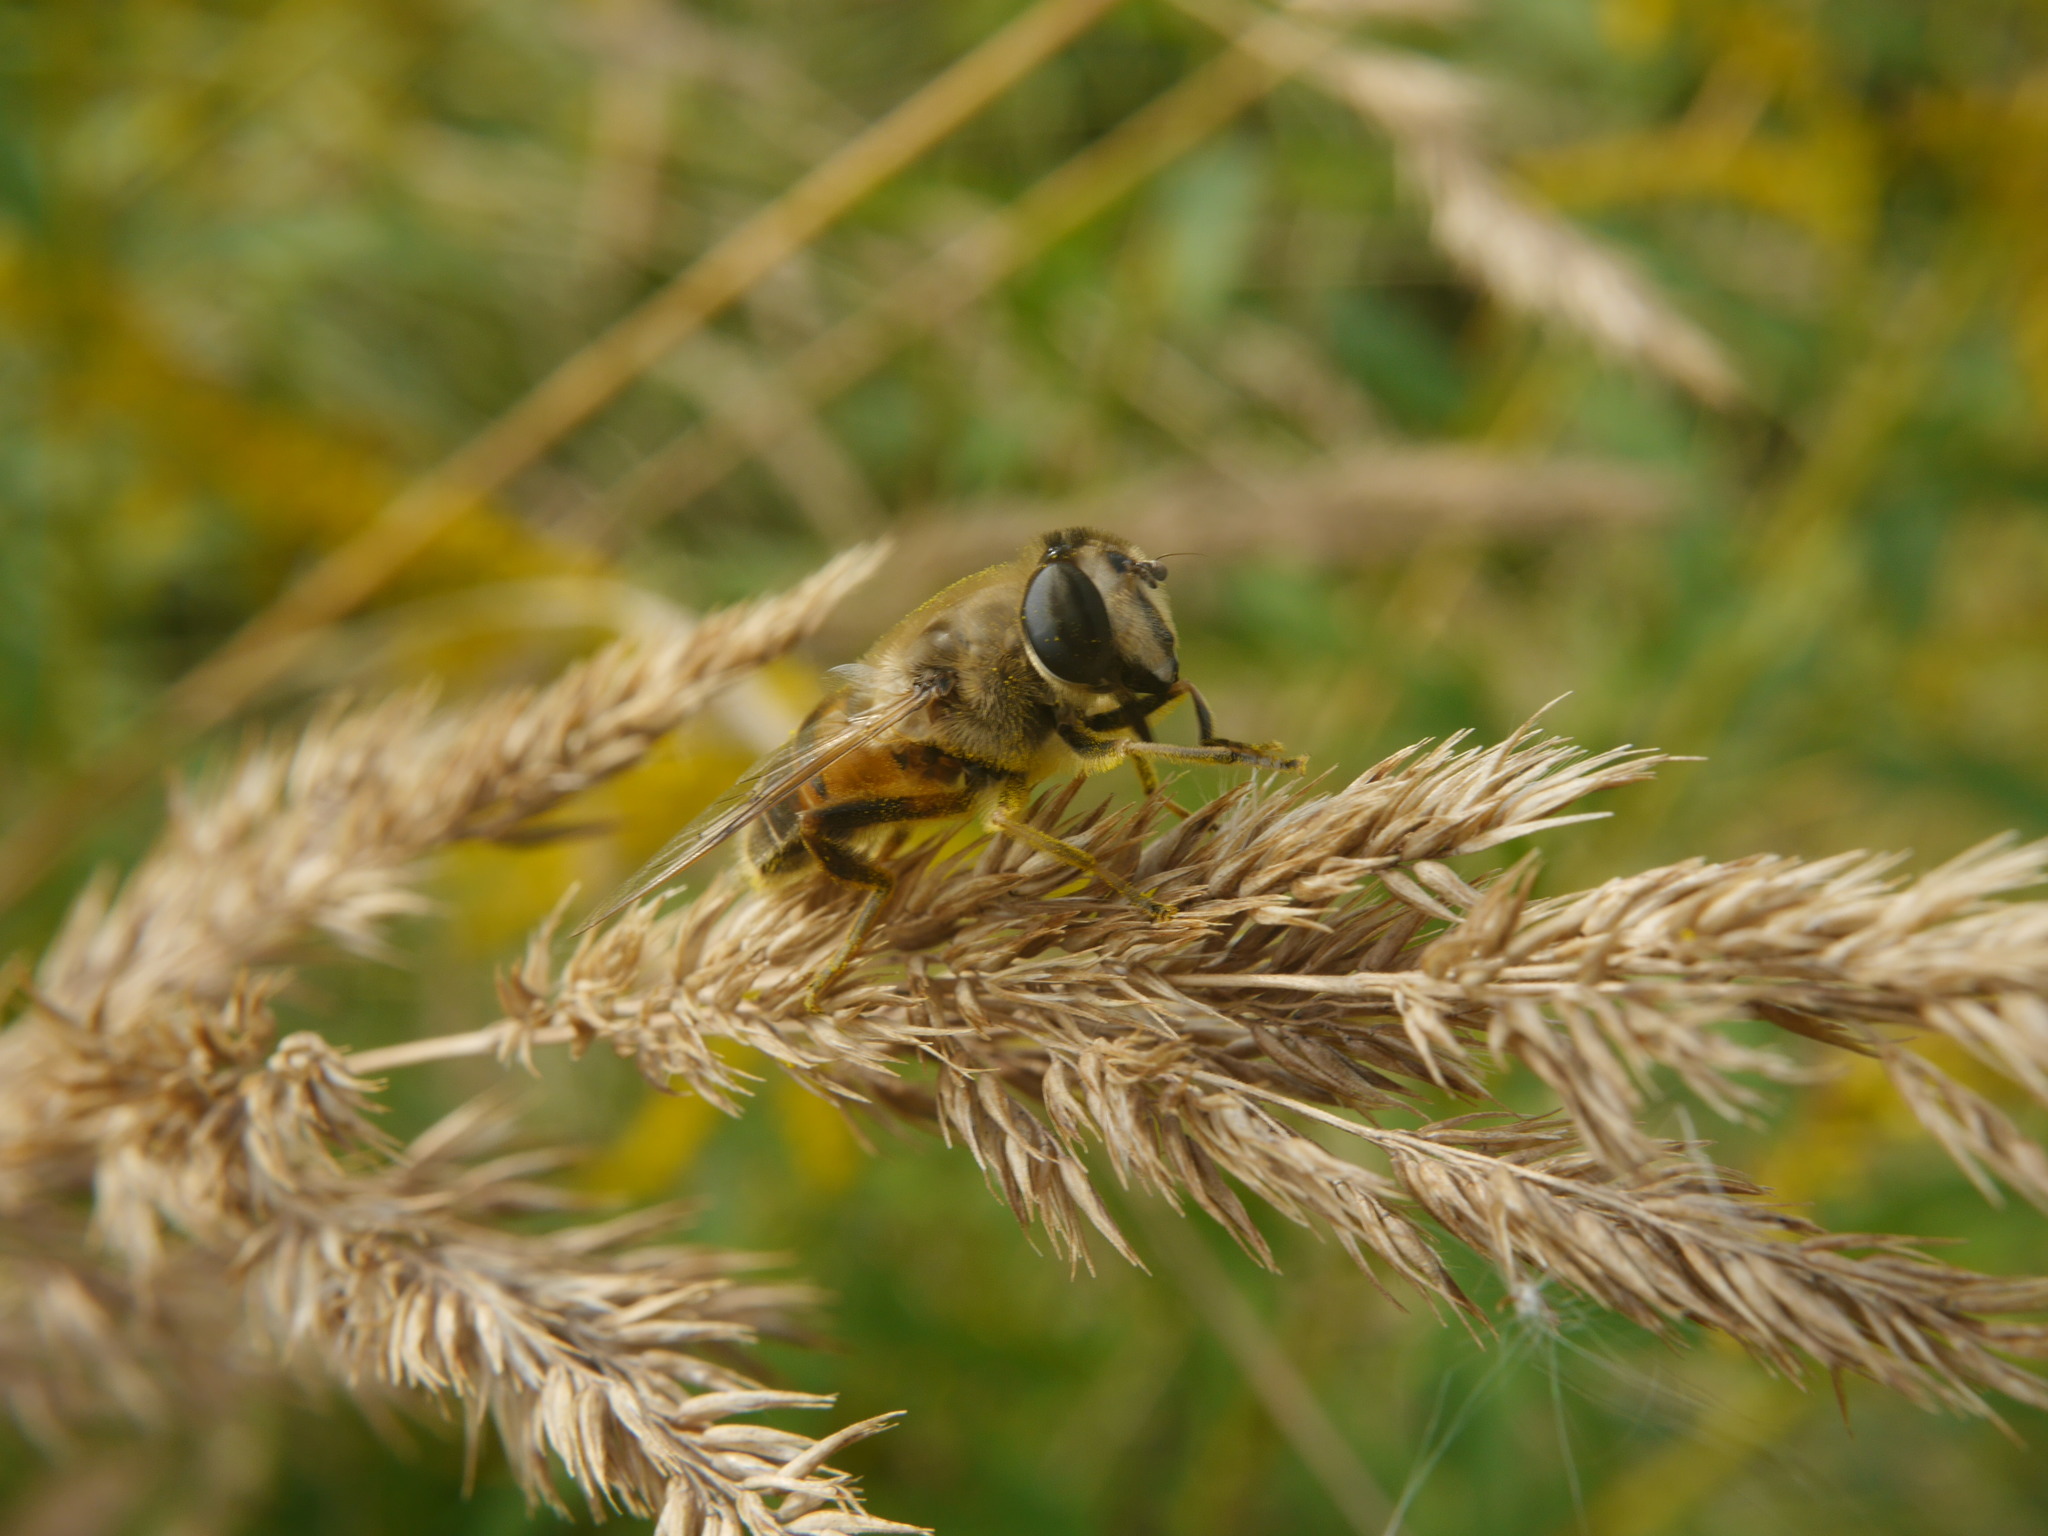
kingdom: Animalia
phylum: Arthropoda
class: Insecta
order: Diptera
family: Syrphidae
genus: Eristalis
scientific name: Eristalis tenax
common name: Drone fly
